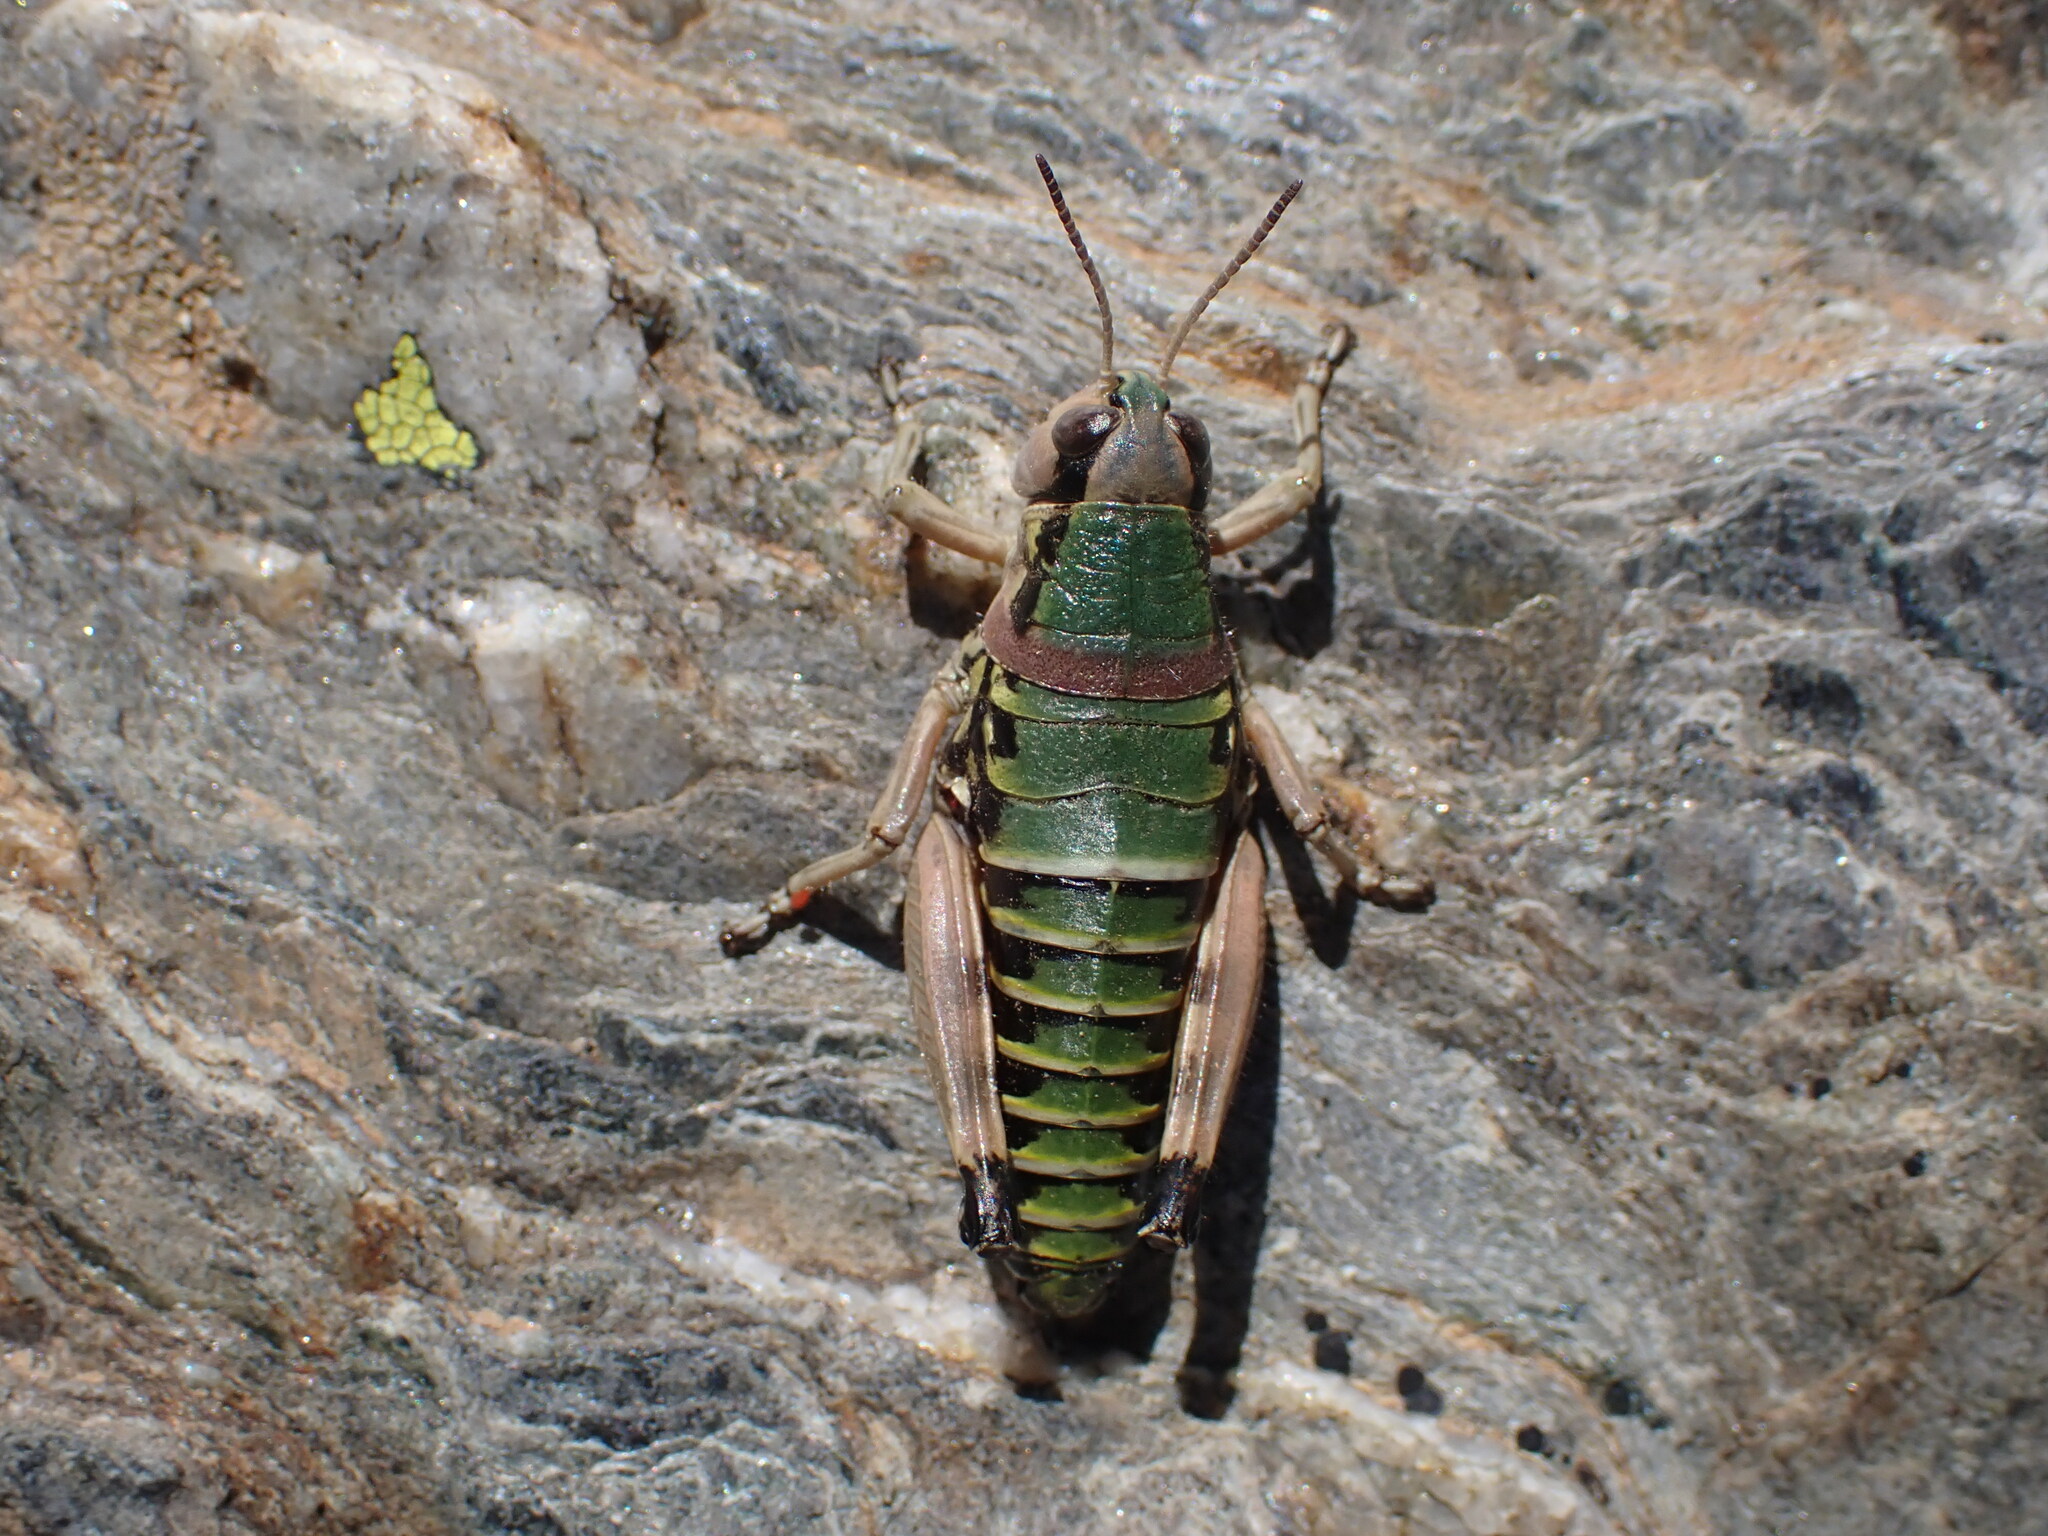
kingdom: Animalia
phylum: Arthropoda
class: Insecta
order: Orthoptera
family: Acrididae
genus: Cophopodisma
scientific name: Cophopodisma pyrenaea
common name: Pyrenean mountain grasshopper
